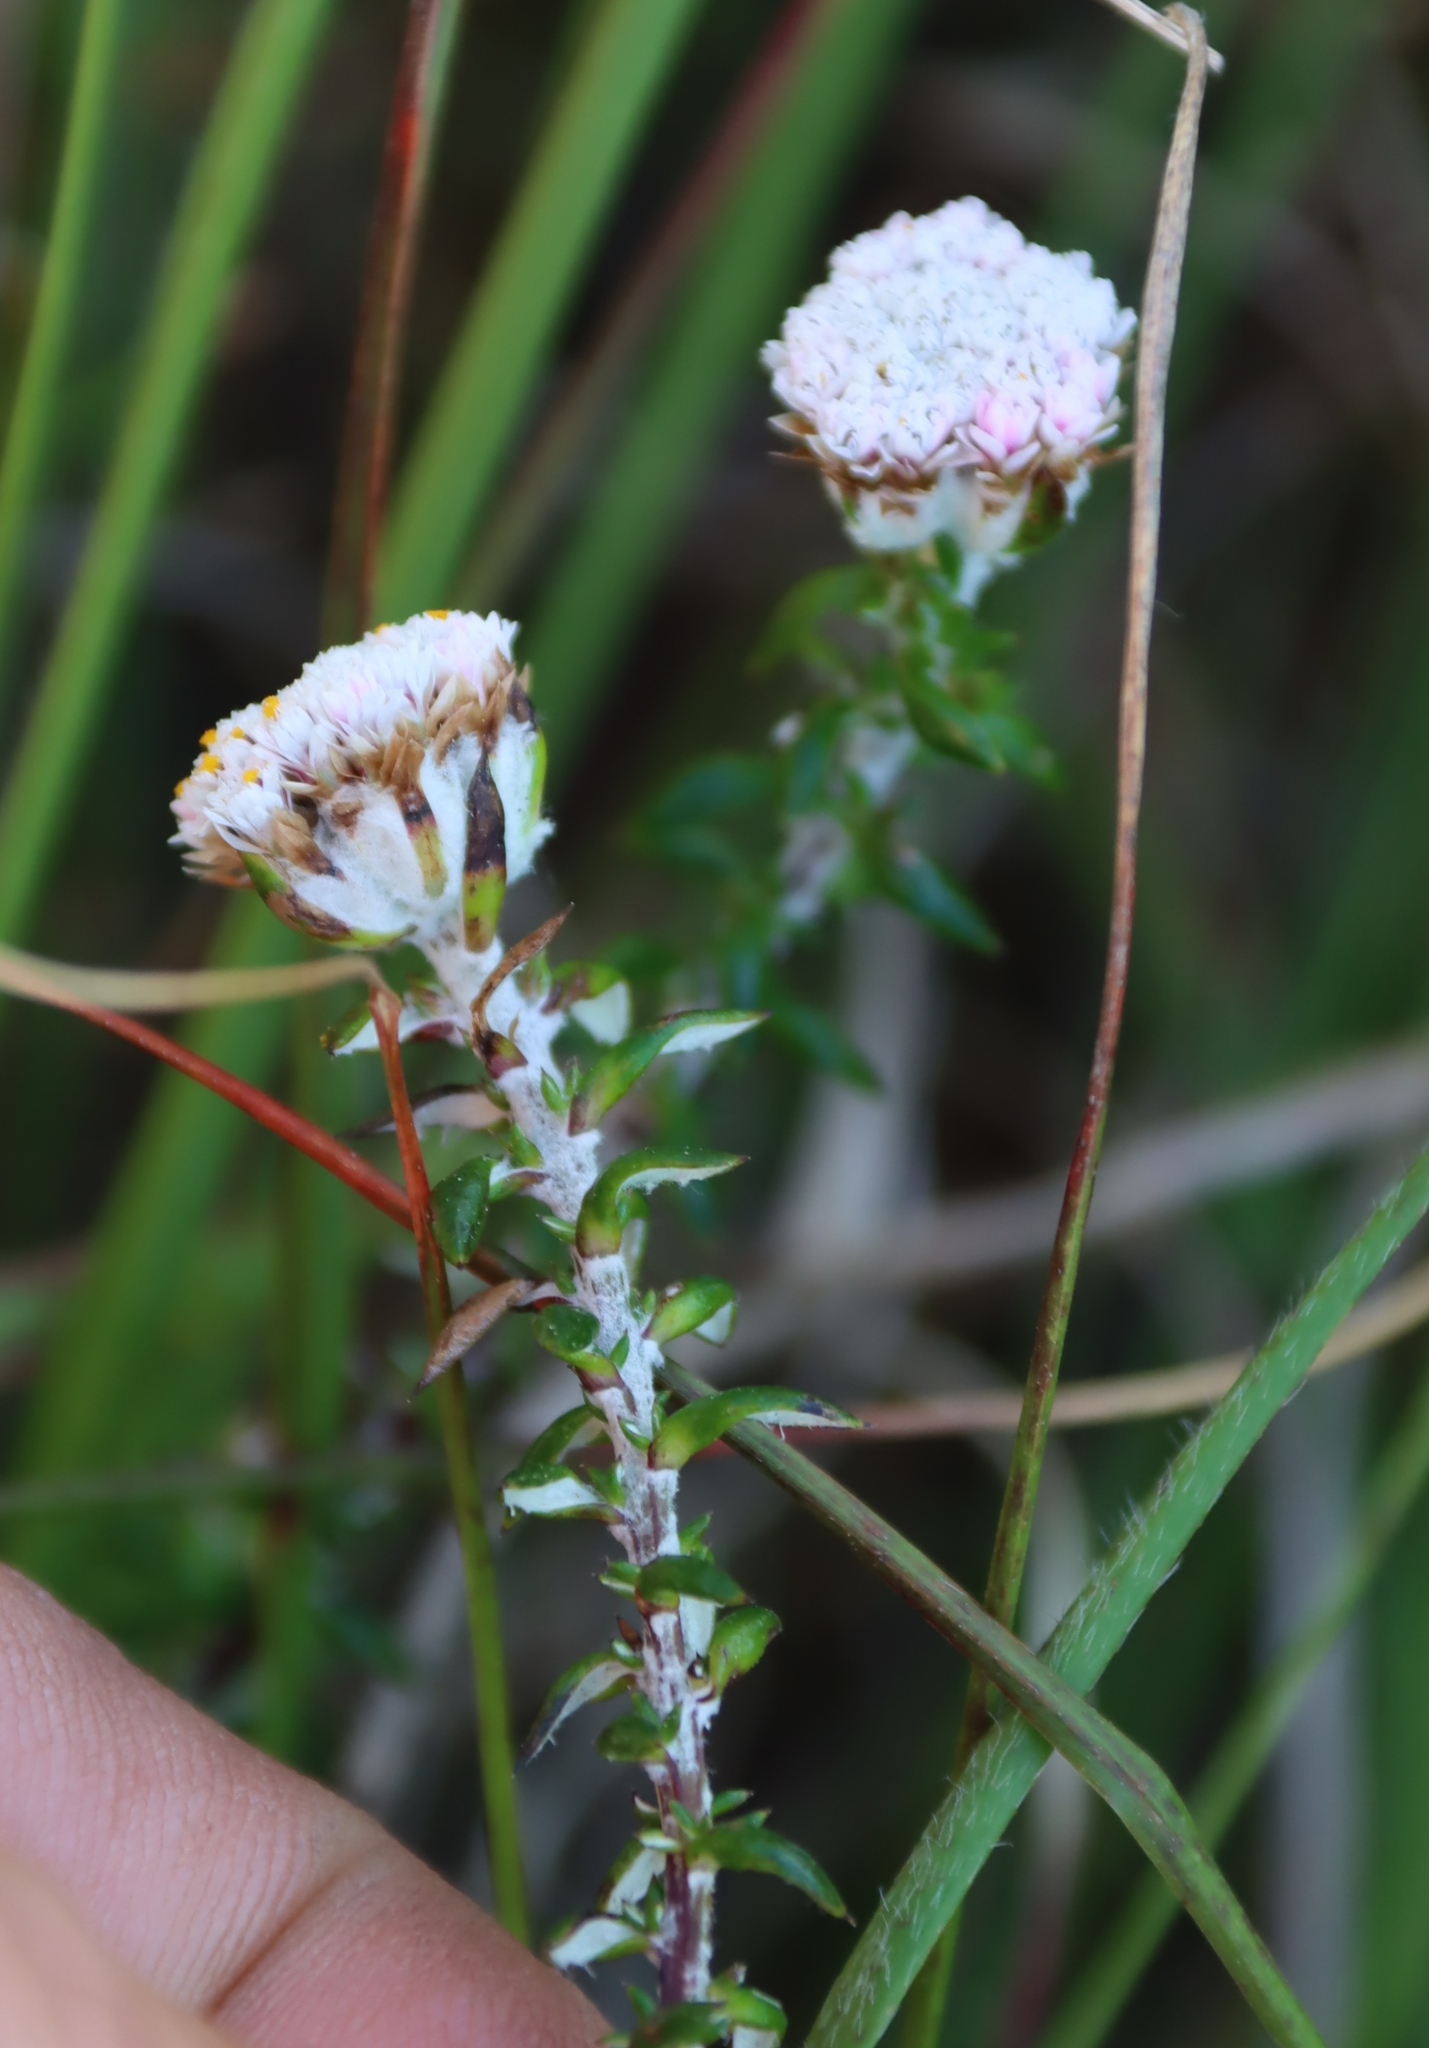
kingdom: Plantae
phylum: Tracheophyta
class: Magnoliopsida
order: Asterales
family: Asteraceae
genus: Metalasia
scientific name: Metalasia divergens
